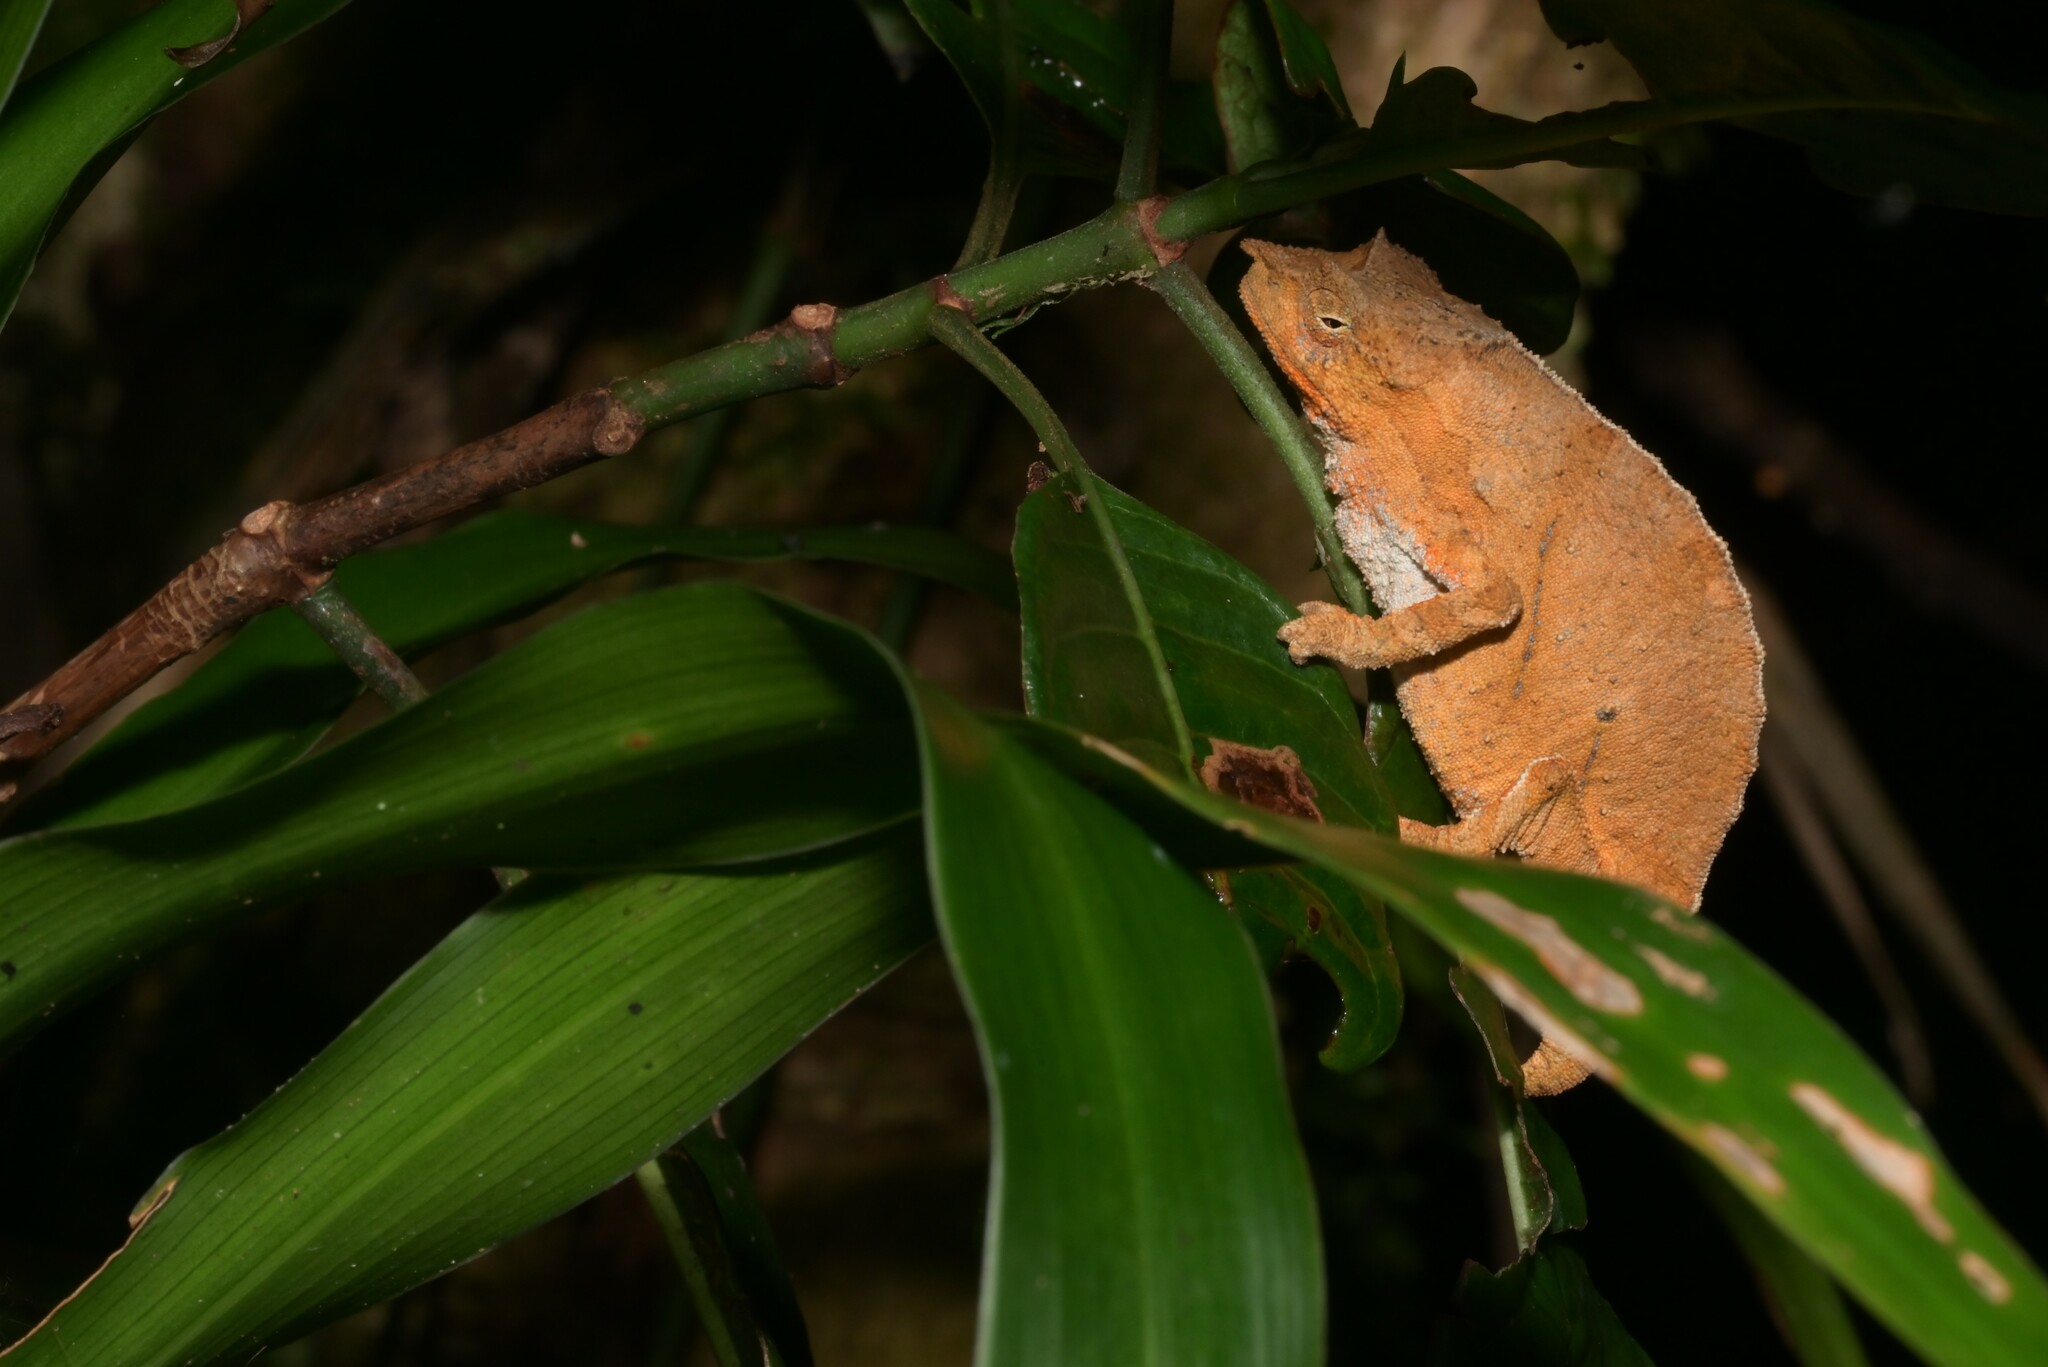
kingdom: Animalia
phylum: Chordata
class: Squamata
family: Chamaeleonidae
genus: Rhampholeon
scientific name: Rhampholeon nchisiensis
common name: South african stumptail chameleon
